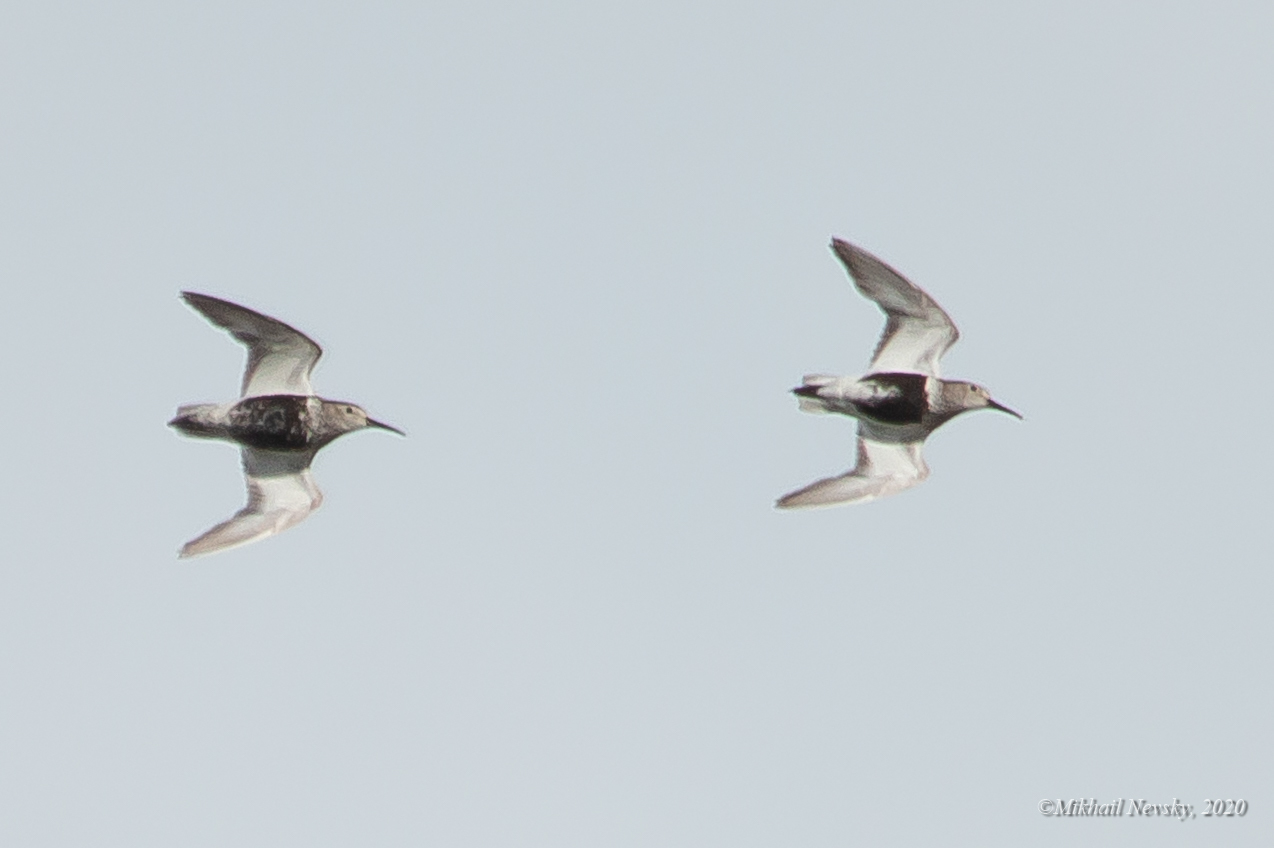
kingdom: Animalia
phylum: Chordata
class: Aves
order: Charadriiformes
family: Scolopacidae
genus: Calidris
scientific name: Calidris alpina
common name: Dunlin
